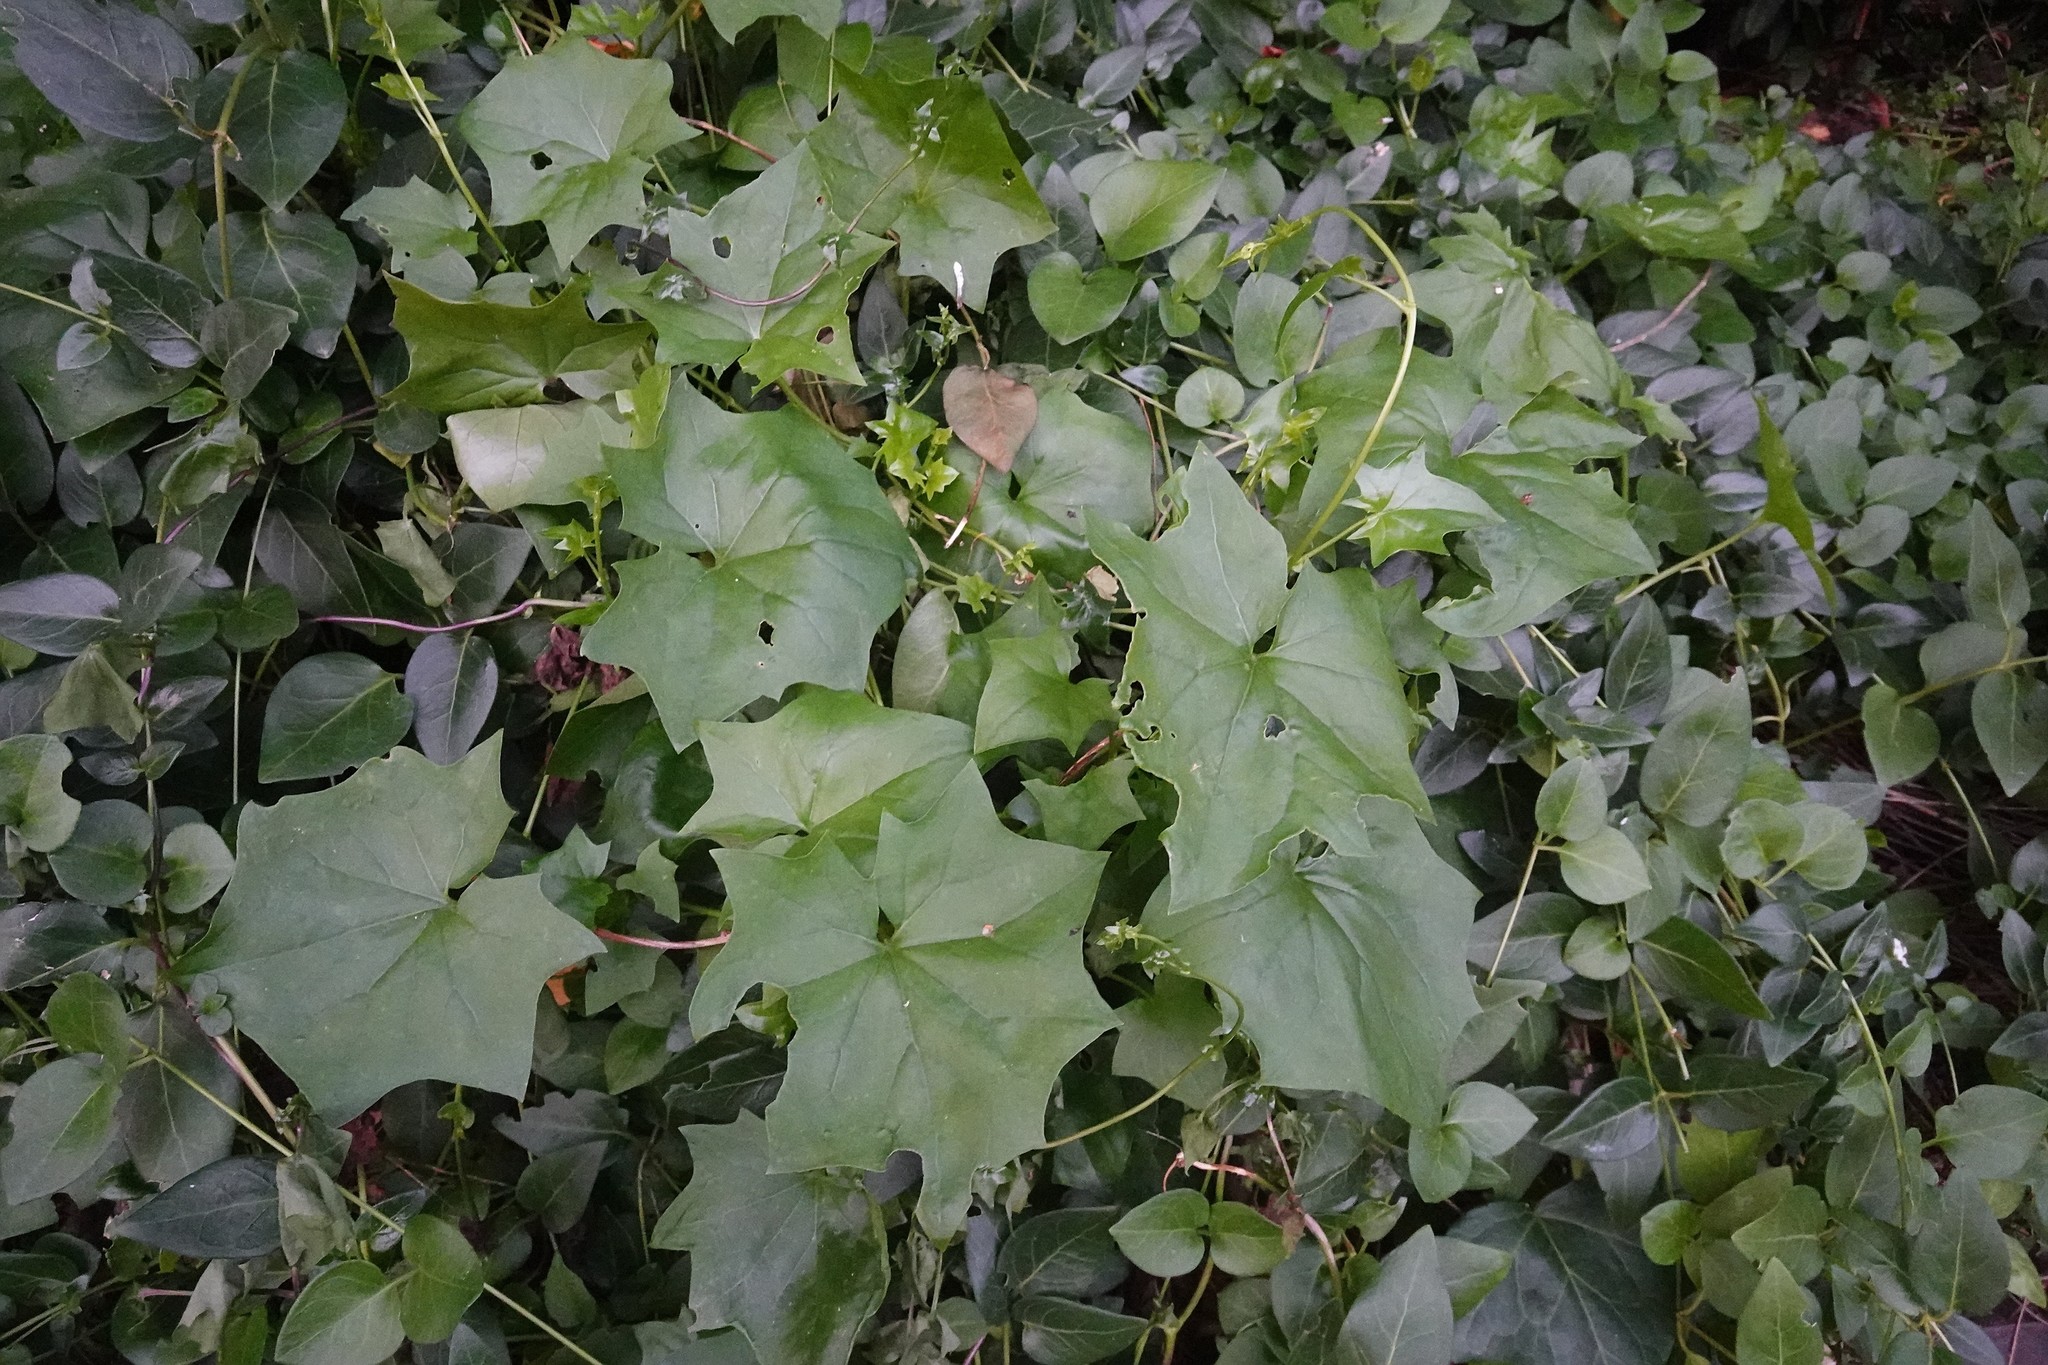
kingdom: Plantae
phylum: Tracheophyta
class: Magnoliopsida
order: Asterales
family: Asteraceae
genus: Delairea
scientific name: Delairea odorata
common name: Cape-ivy
